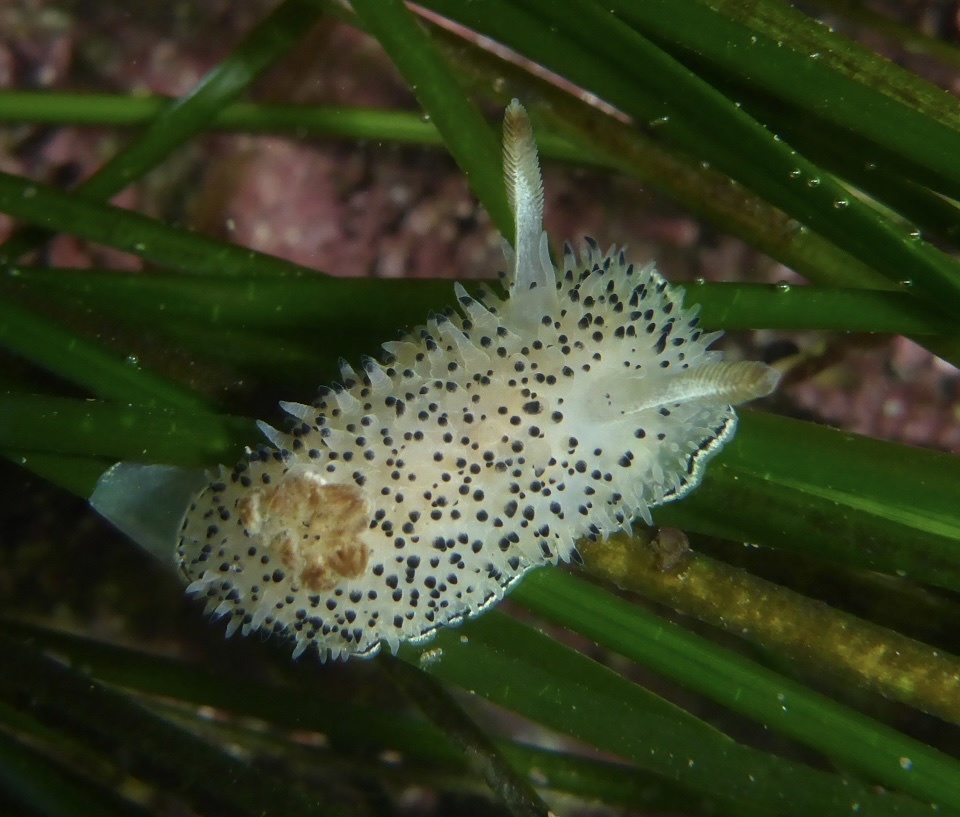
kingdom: Animalia
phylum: Mollusca
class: Gastropoda
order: Nudibranchia
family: Onchidorididae
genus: Acanthodoris
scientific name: Acanthodoris rhodoceras
